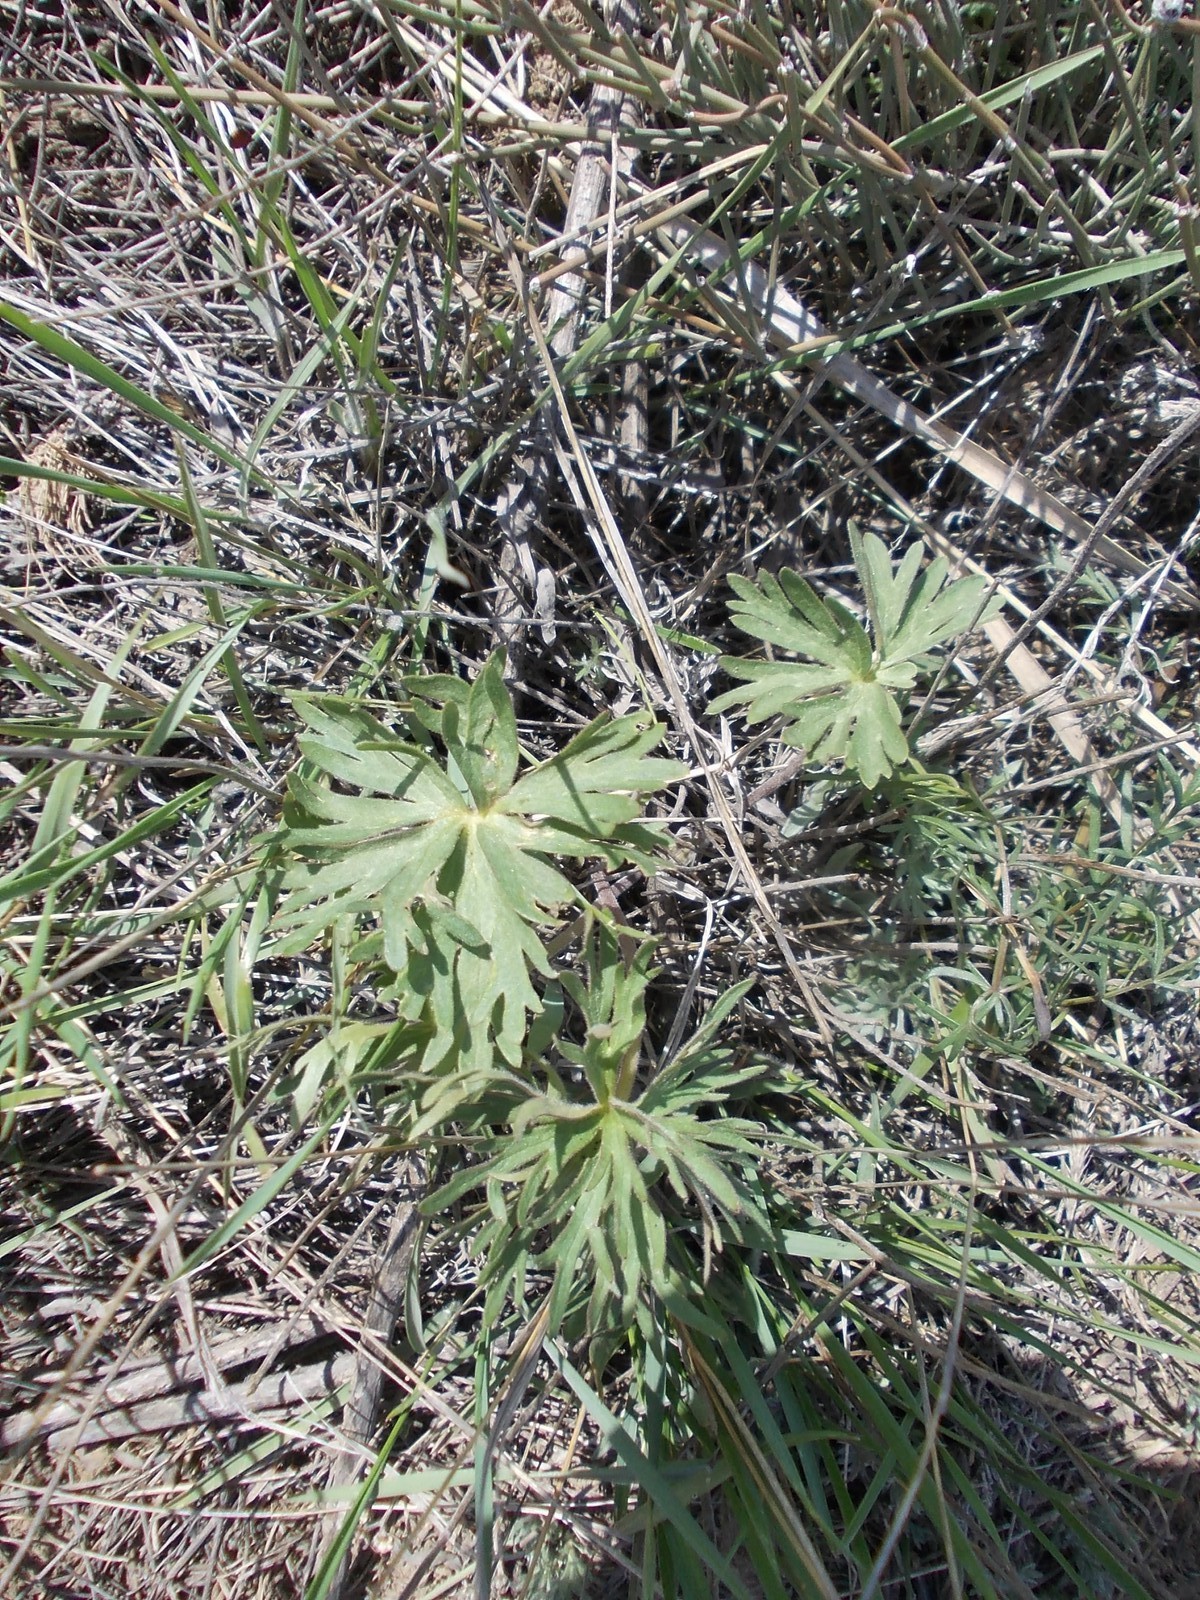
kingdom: Plantae
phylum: Tracheophyta
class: Magnoliopsida
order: Ranunculales
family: Ranunculaceae
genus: Delphinium
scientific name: Delphinium puniceum
